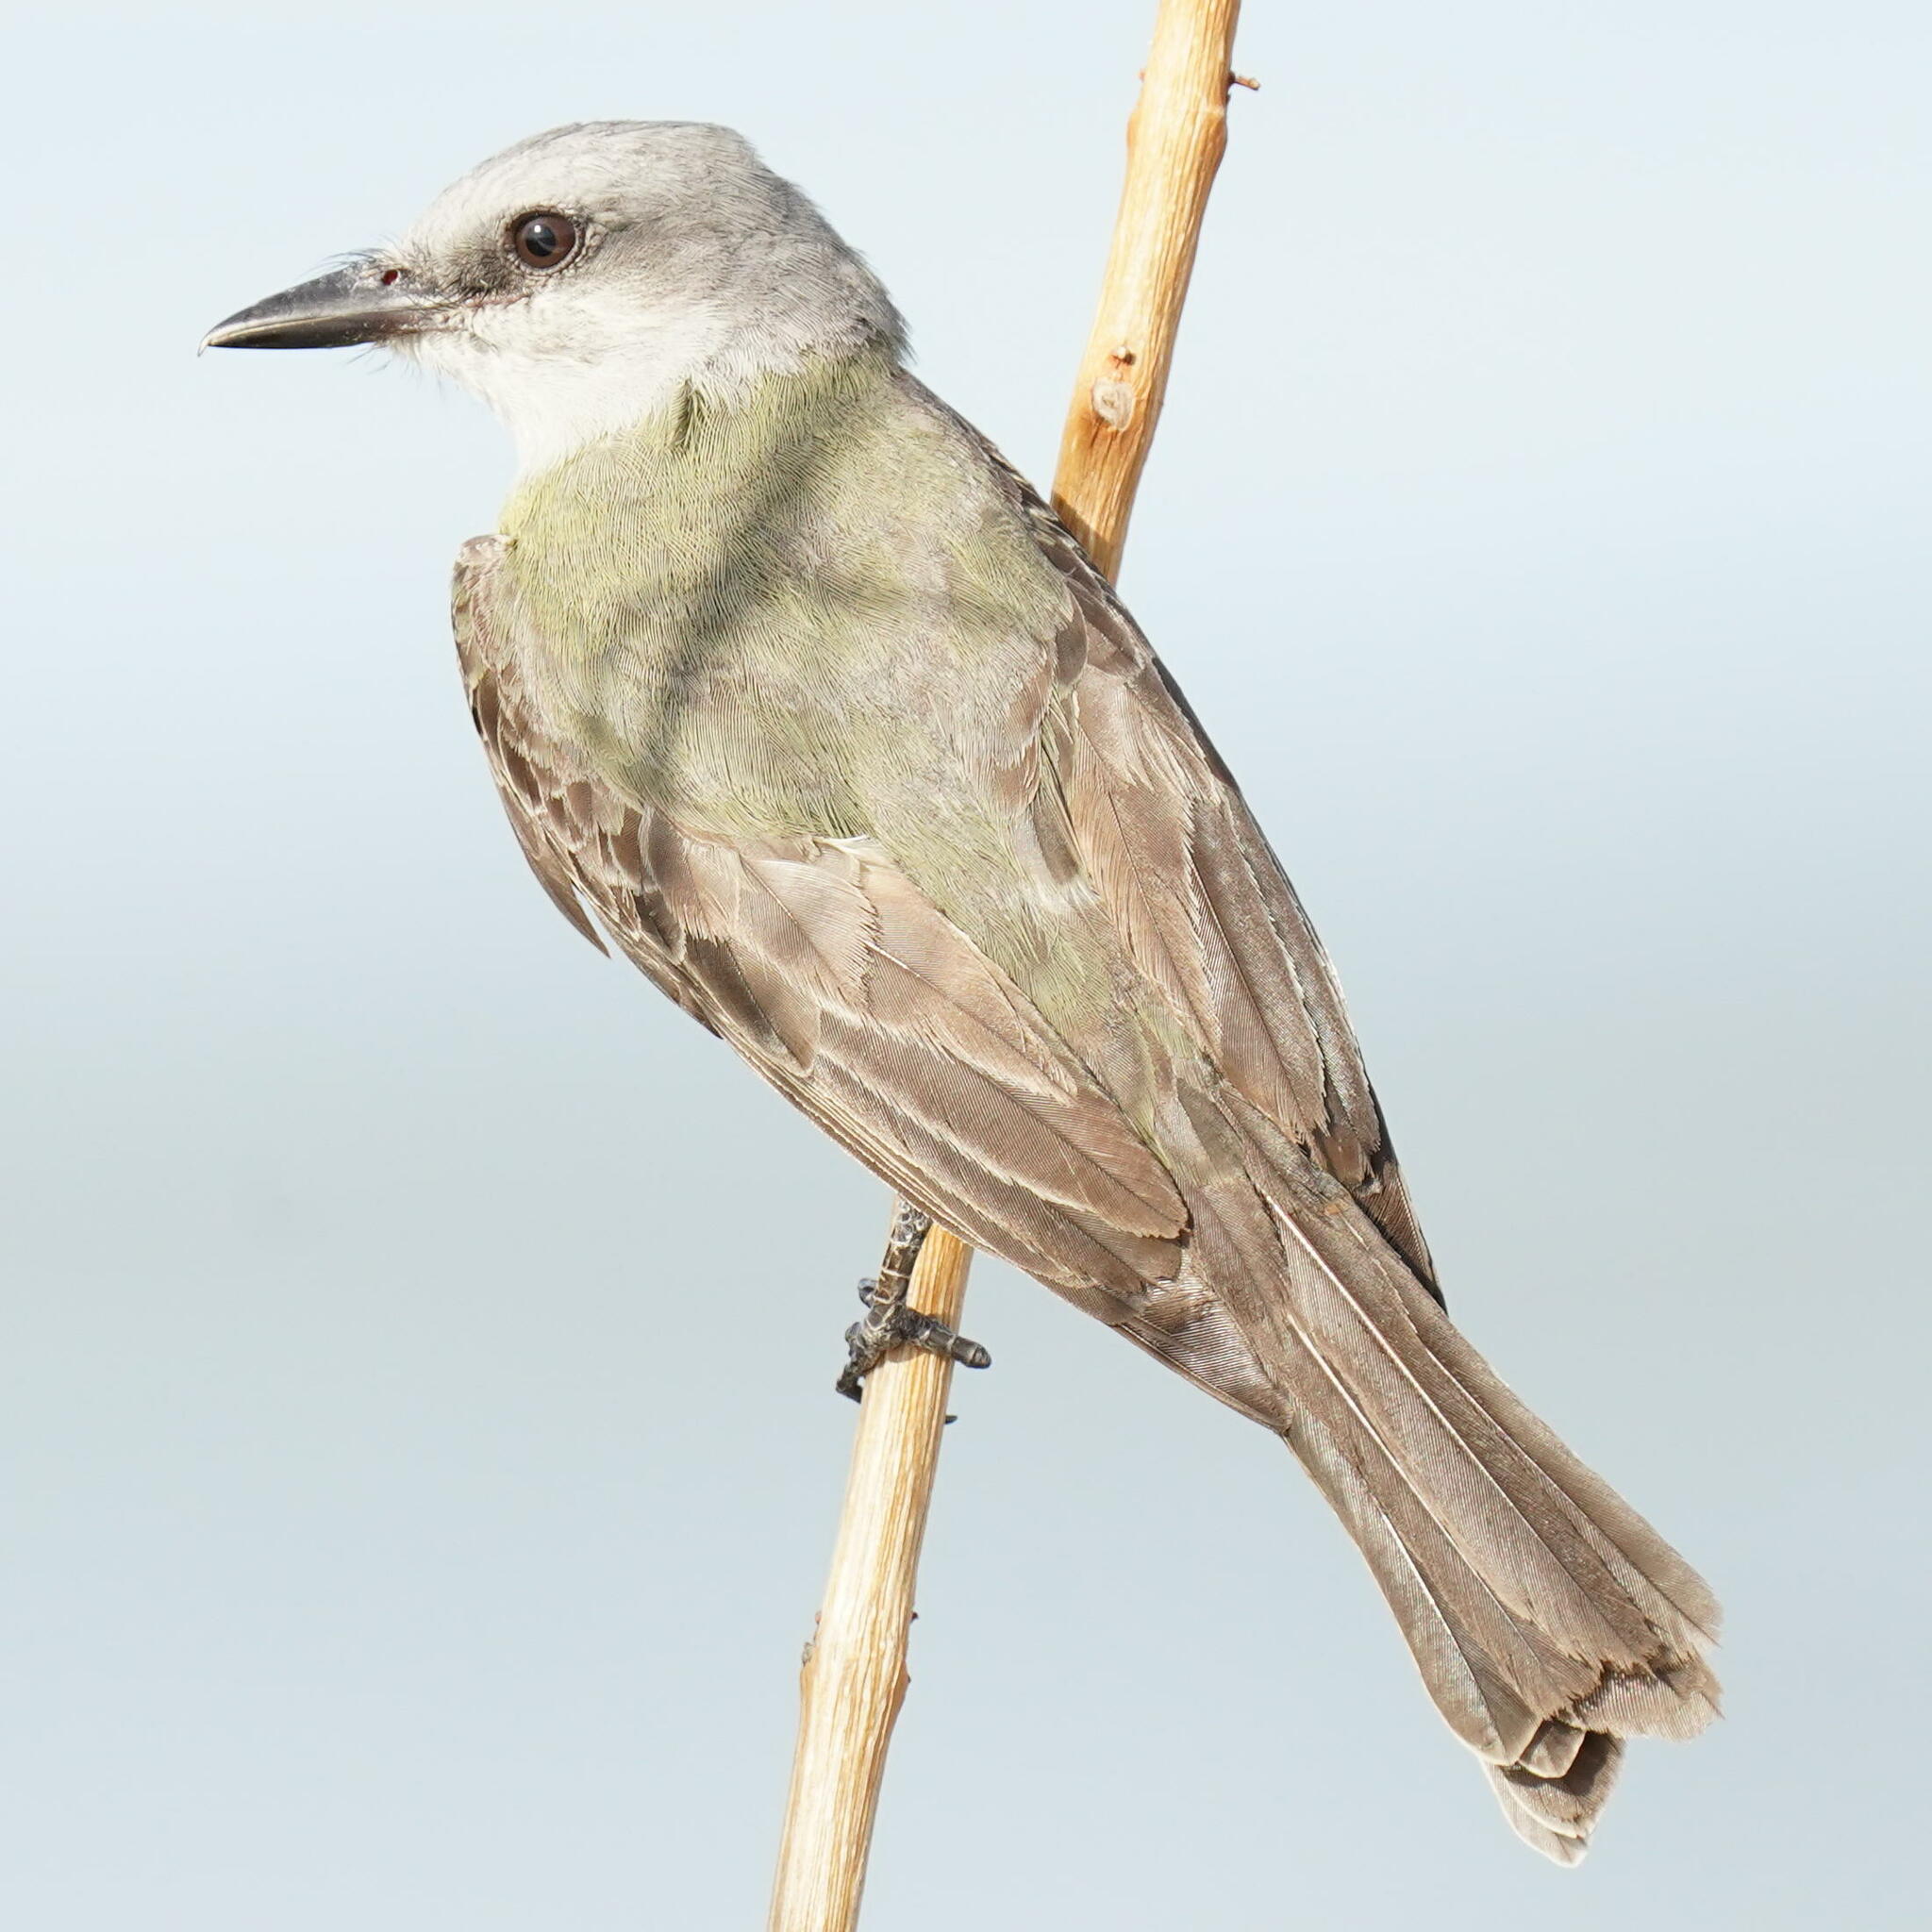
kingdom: Animalia
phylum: Chordata
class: Aves
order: Passeriformes
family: Tyrannidae
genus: Tyrannus
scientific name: Tyrannus melancholicus
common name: Tropical kingbird
